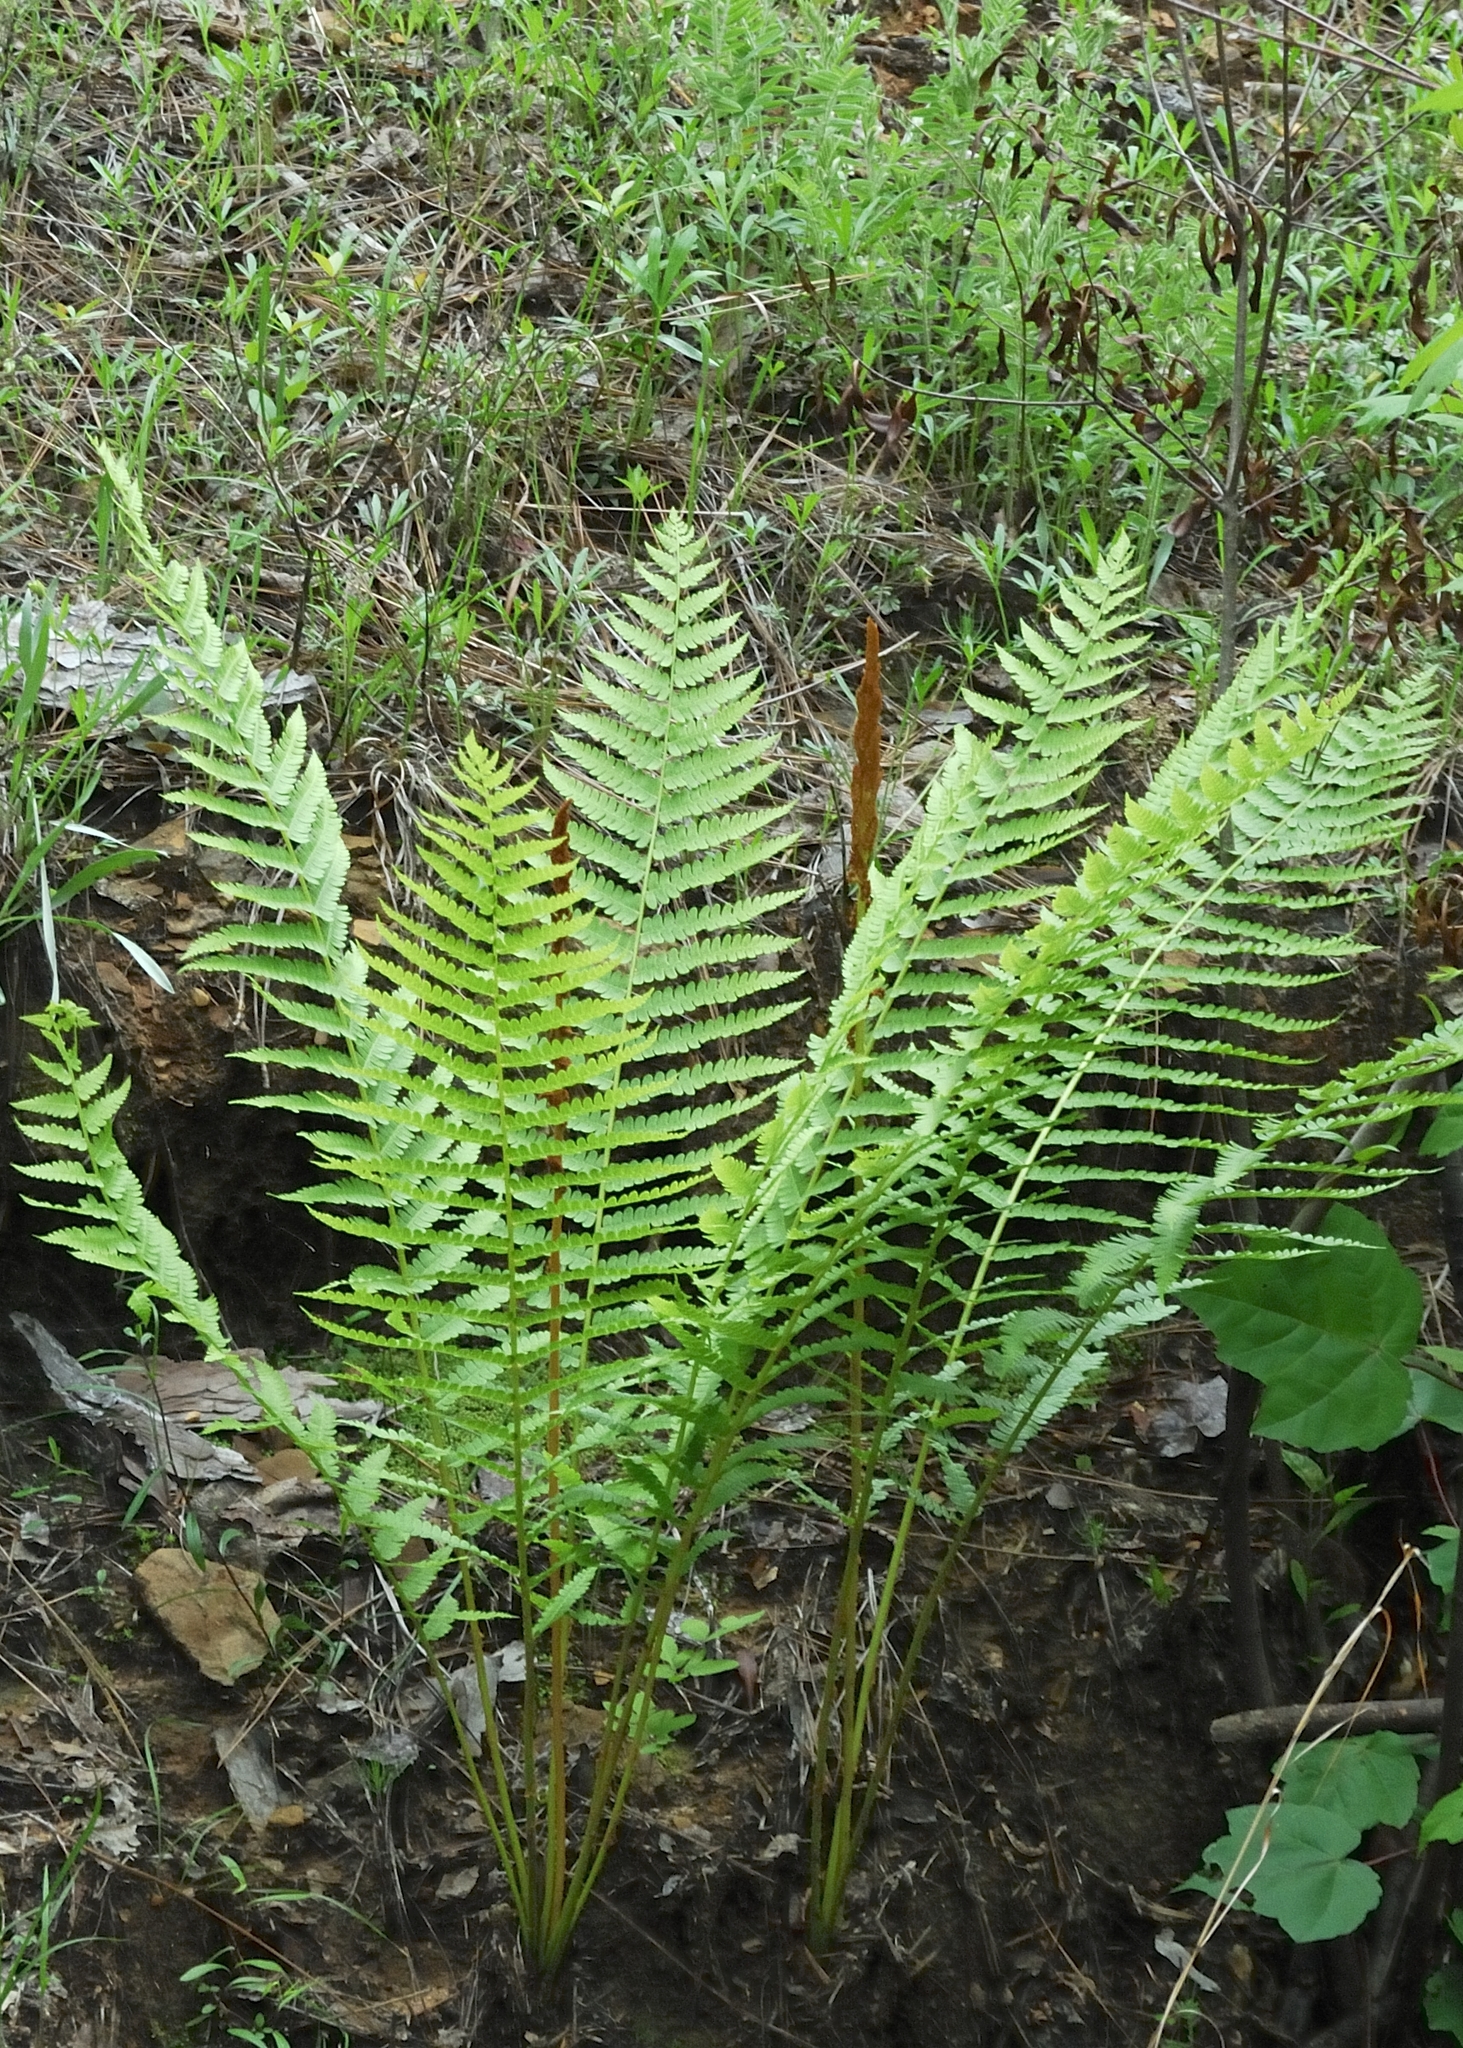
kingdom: Plantae
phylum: Tracheophyta
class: Polypodiopsida
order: Osmundales
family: Osmundaceae
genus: Osmundastrum
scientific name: Osmundastrum cinnamomeum
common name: Cinnamon fern
